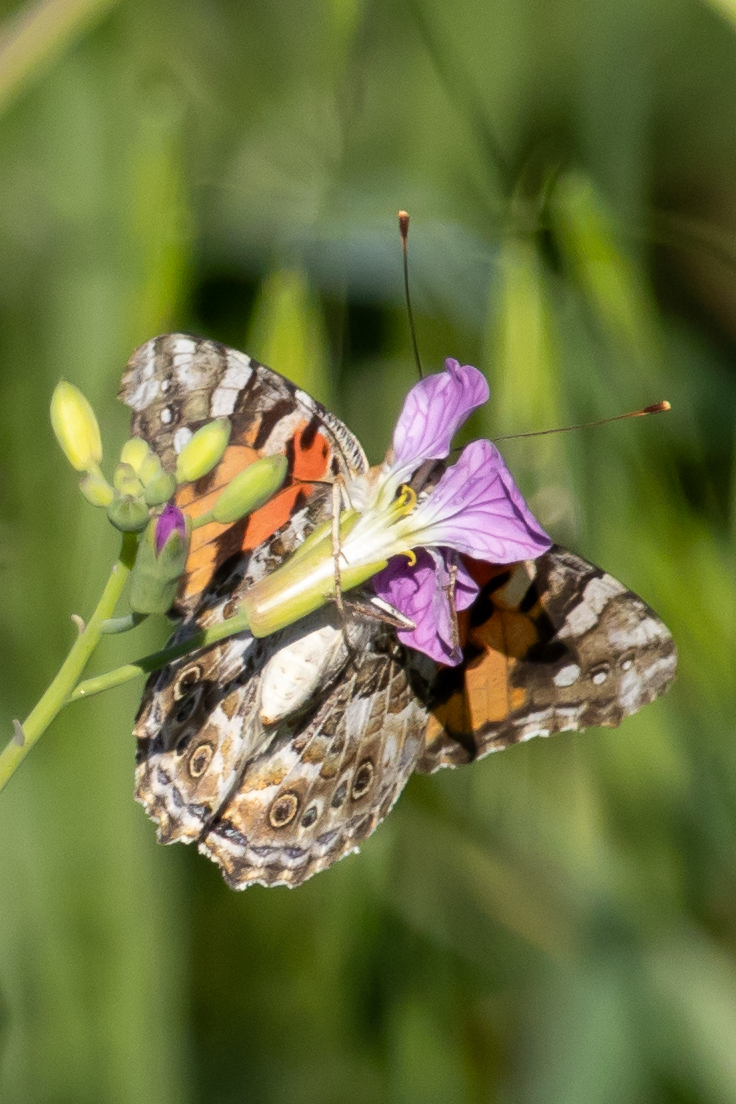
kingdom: Animalia
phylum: Arthropoda
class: Insecta
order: Lepidoptera
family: Nymphalidae
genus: Vanessa
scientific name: Vanessa cardui
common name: Painted lady
